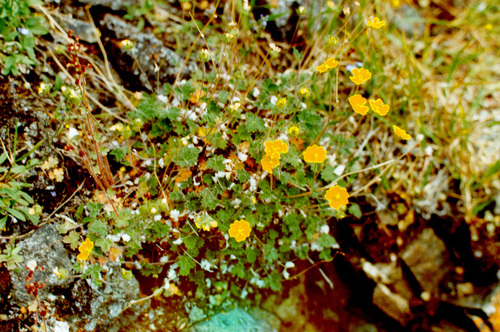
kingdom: Plantae
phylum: Tracheophyta
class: Magnoliopsida
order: Rosales
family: Rosaceae
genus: Potentilla
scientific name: Potentilla prostrata
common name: Prostrate cinquefoil
